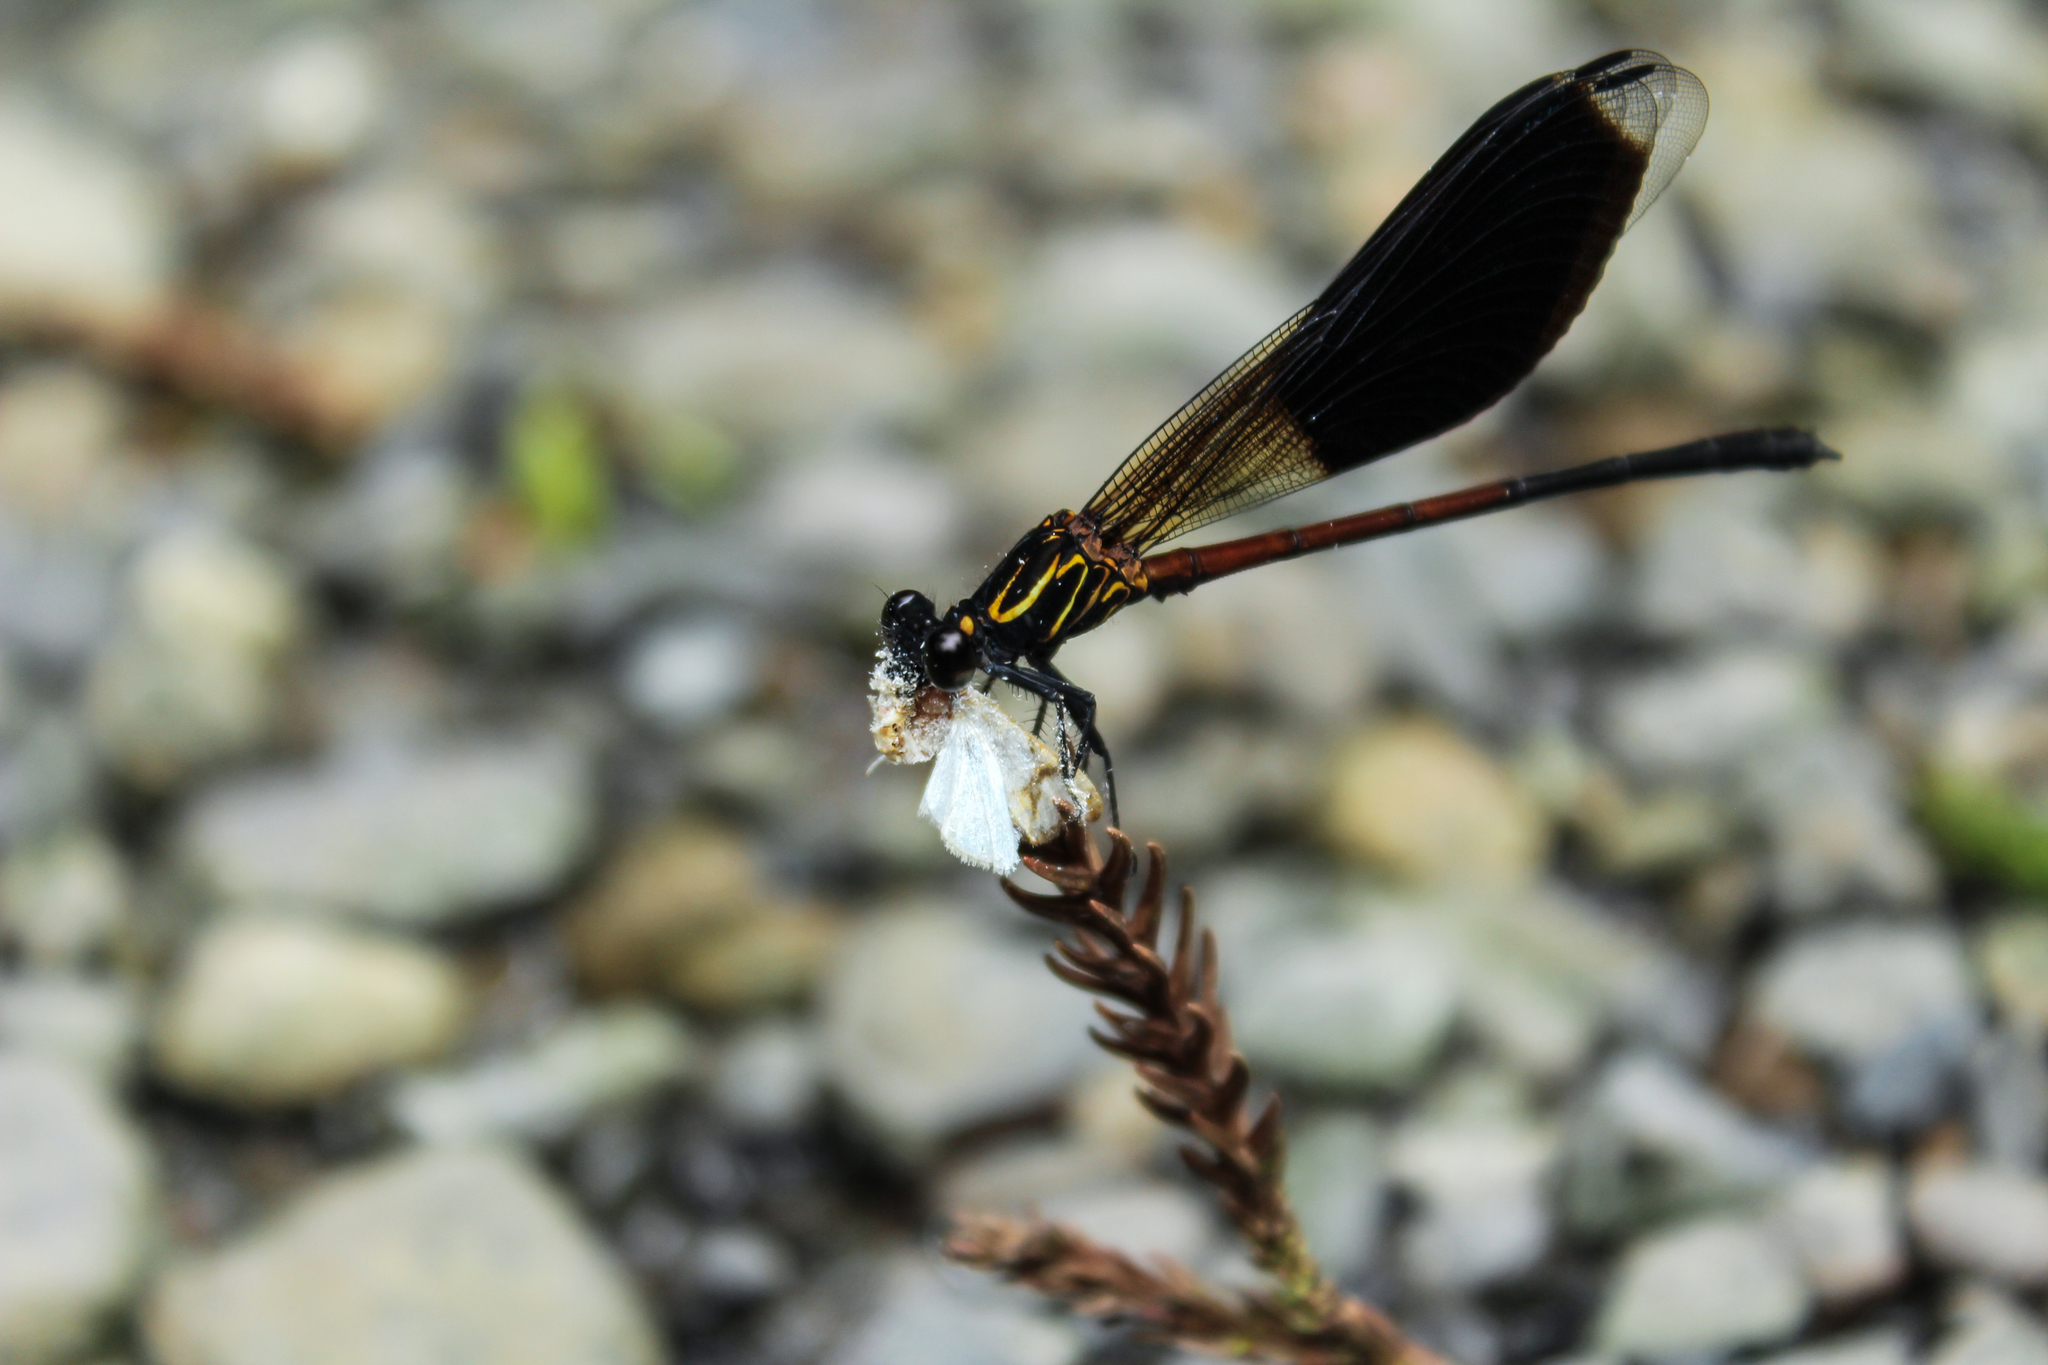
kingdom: Animalia
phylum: Arthropoda
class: Insecta
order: Odonata
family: Euphaeidae
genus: Euphaea
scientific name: Euphaea formosa
